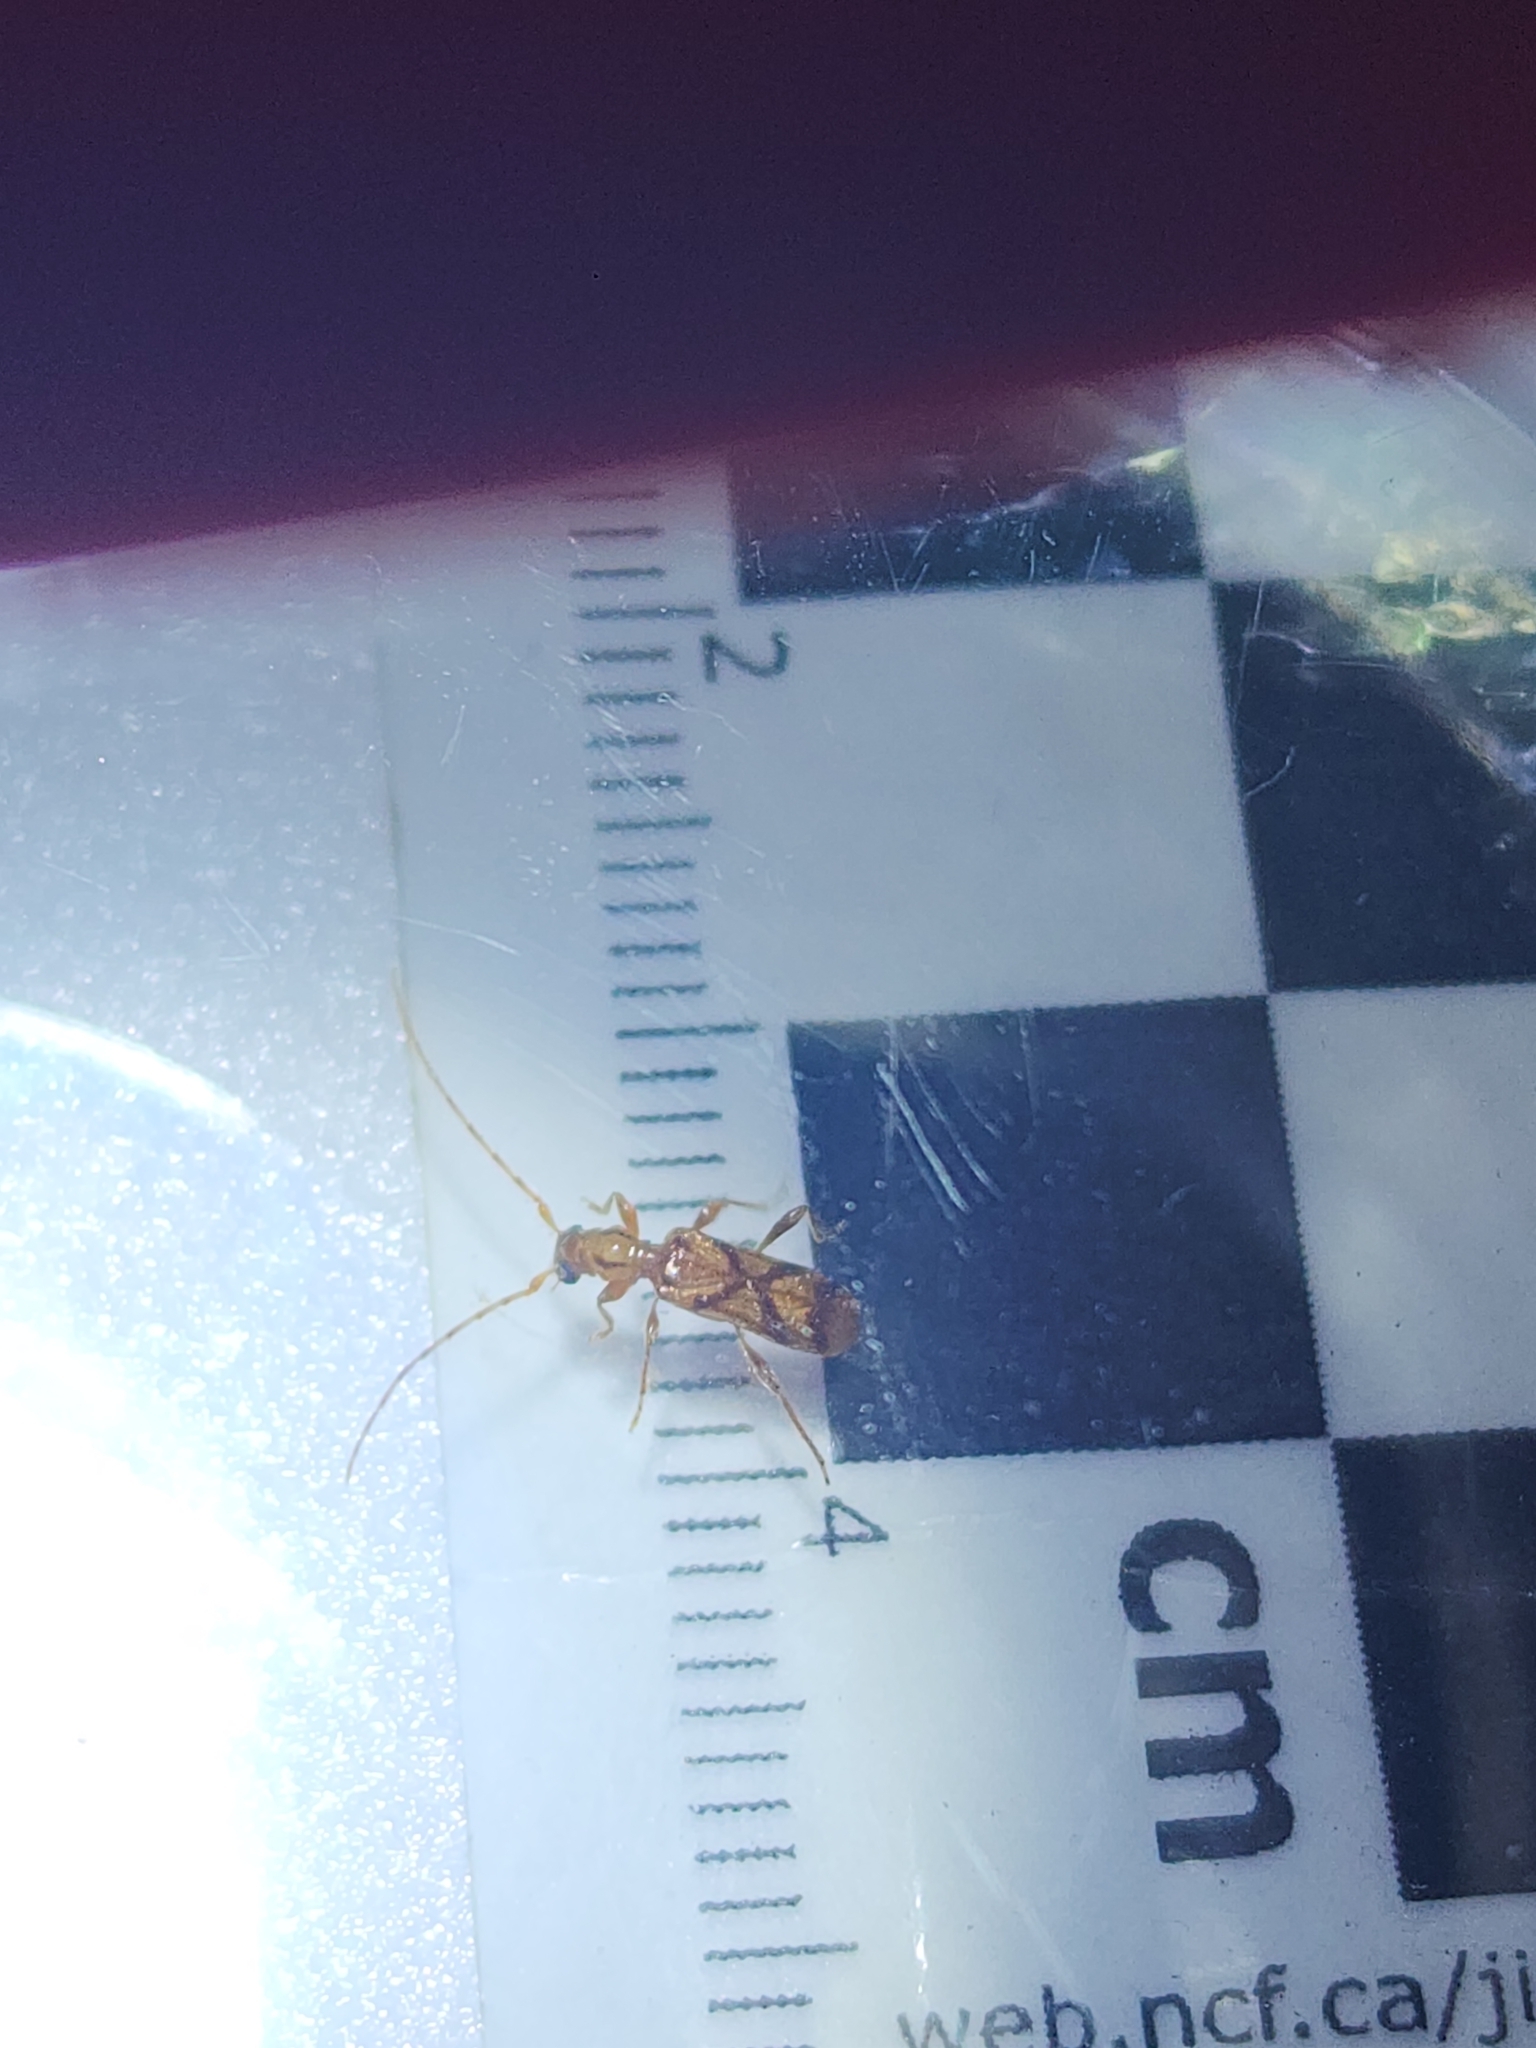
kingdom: Animalia
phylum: Arthropoda
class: Insecta
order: Coleoptera
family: Cerambycidae
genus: Obrium
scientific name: Obrium vicinum
